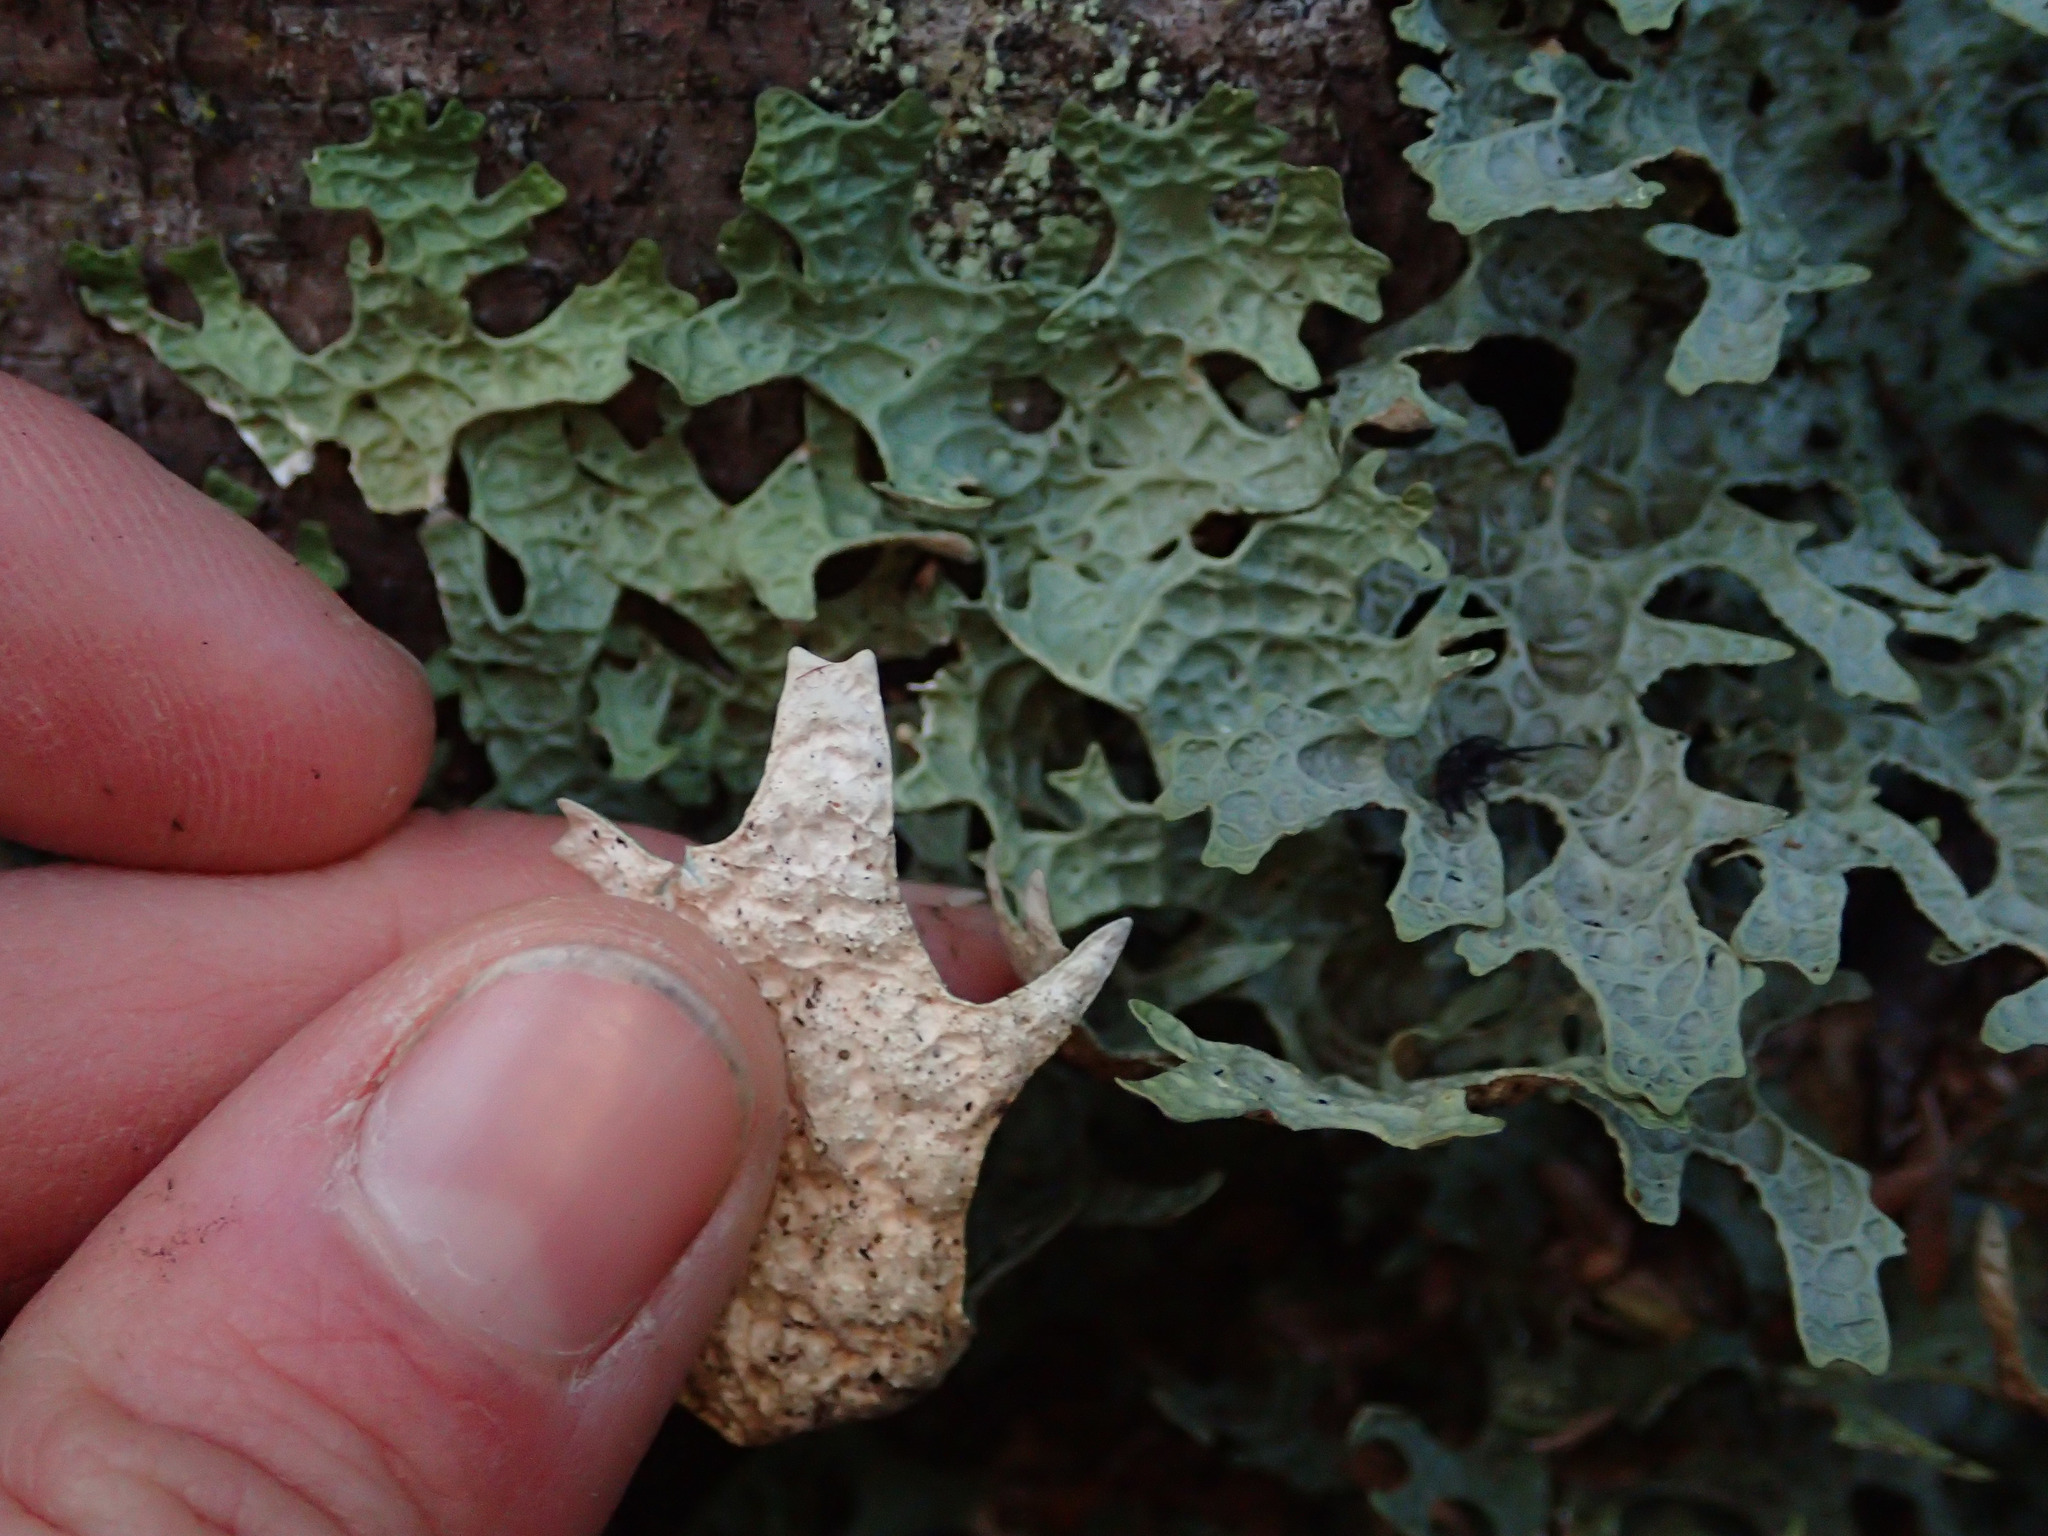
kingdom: Fungi
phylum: Ascomycota
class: Lecanoromycetes
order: Peltigerales
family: Lobariaceae
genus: Pseudocyphellaria
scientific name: Pseudocyphellaria rufovirescens
